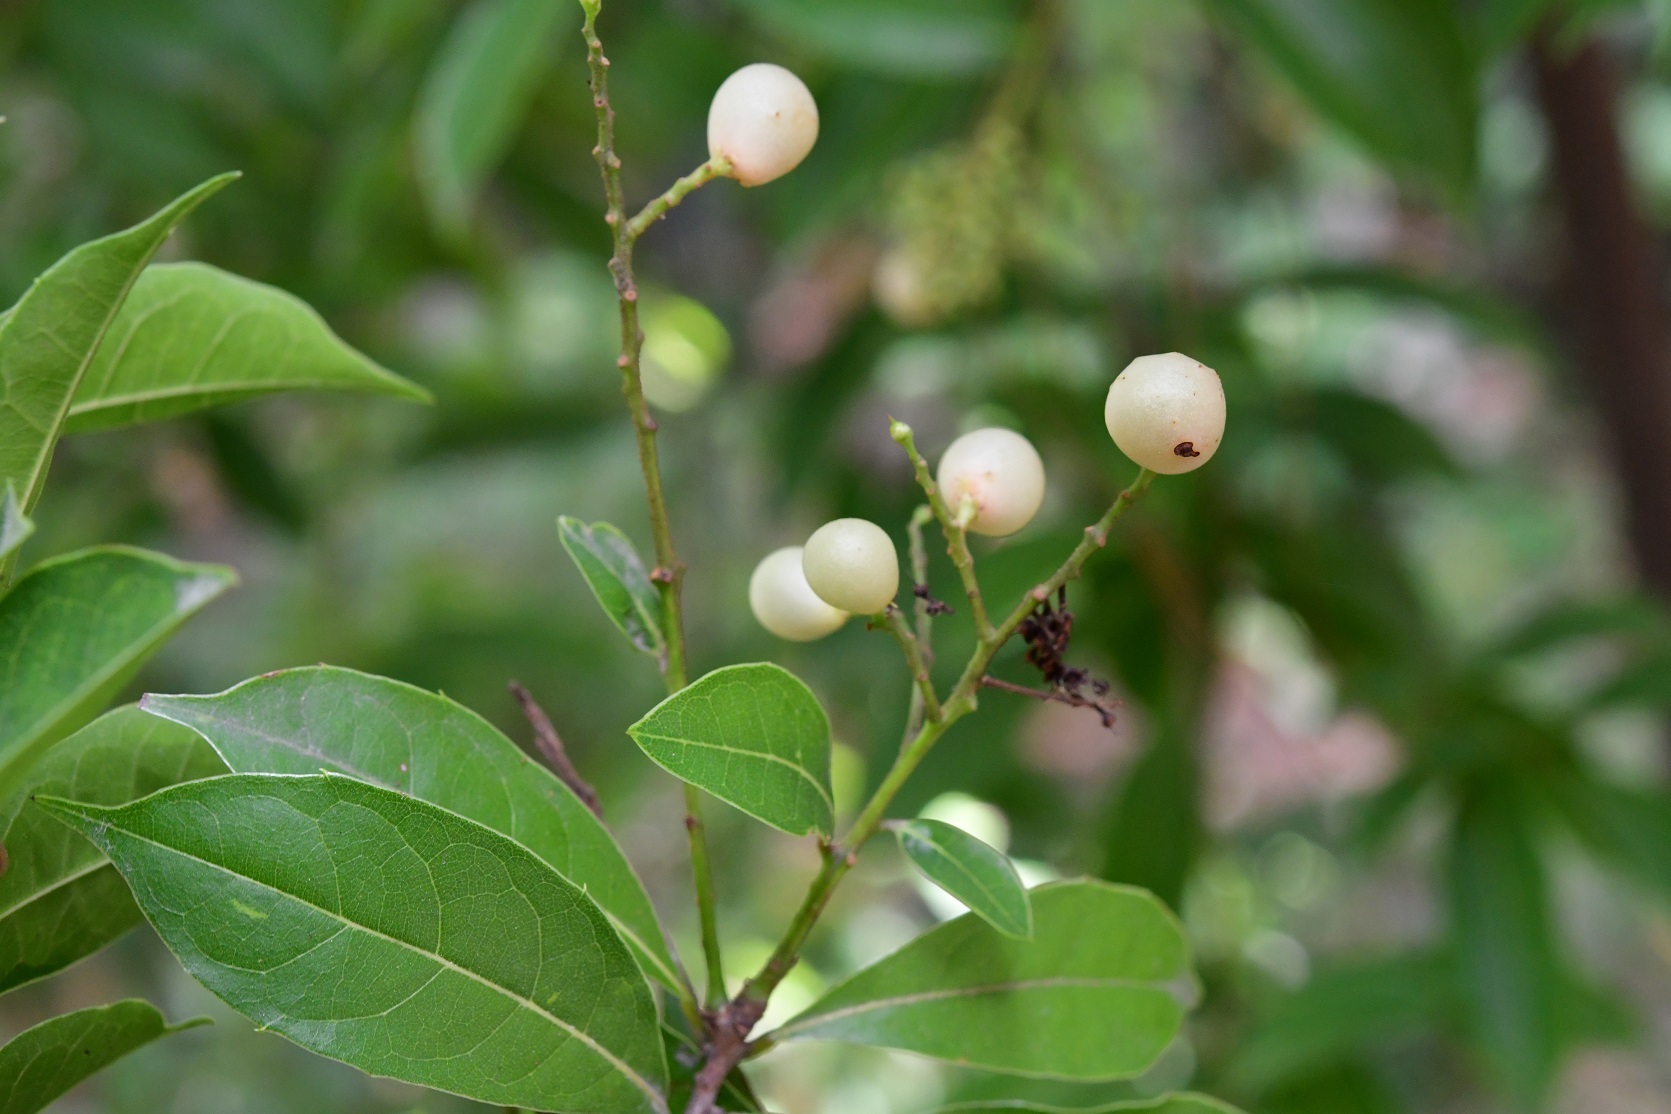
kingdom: Plantae
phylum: Tracheophyta
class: Magnoliopsida
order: Proteales
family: Sabiaceae
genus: Meliosma
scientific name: Meliosma dentata
